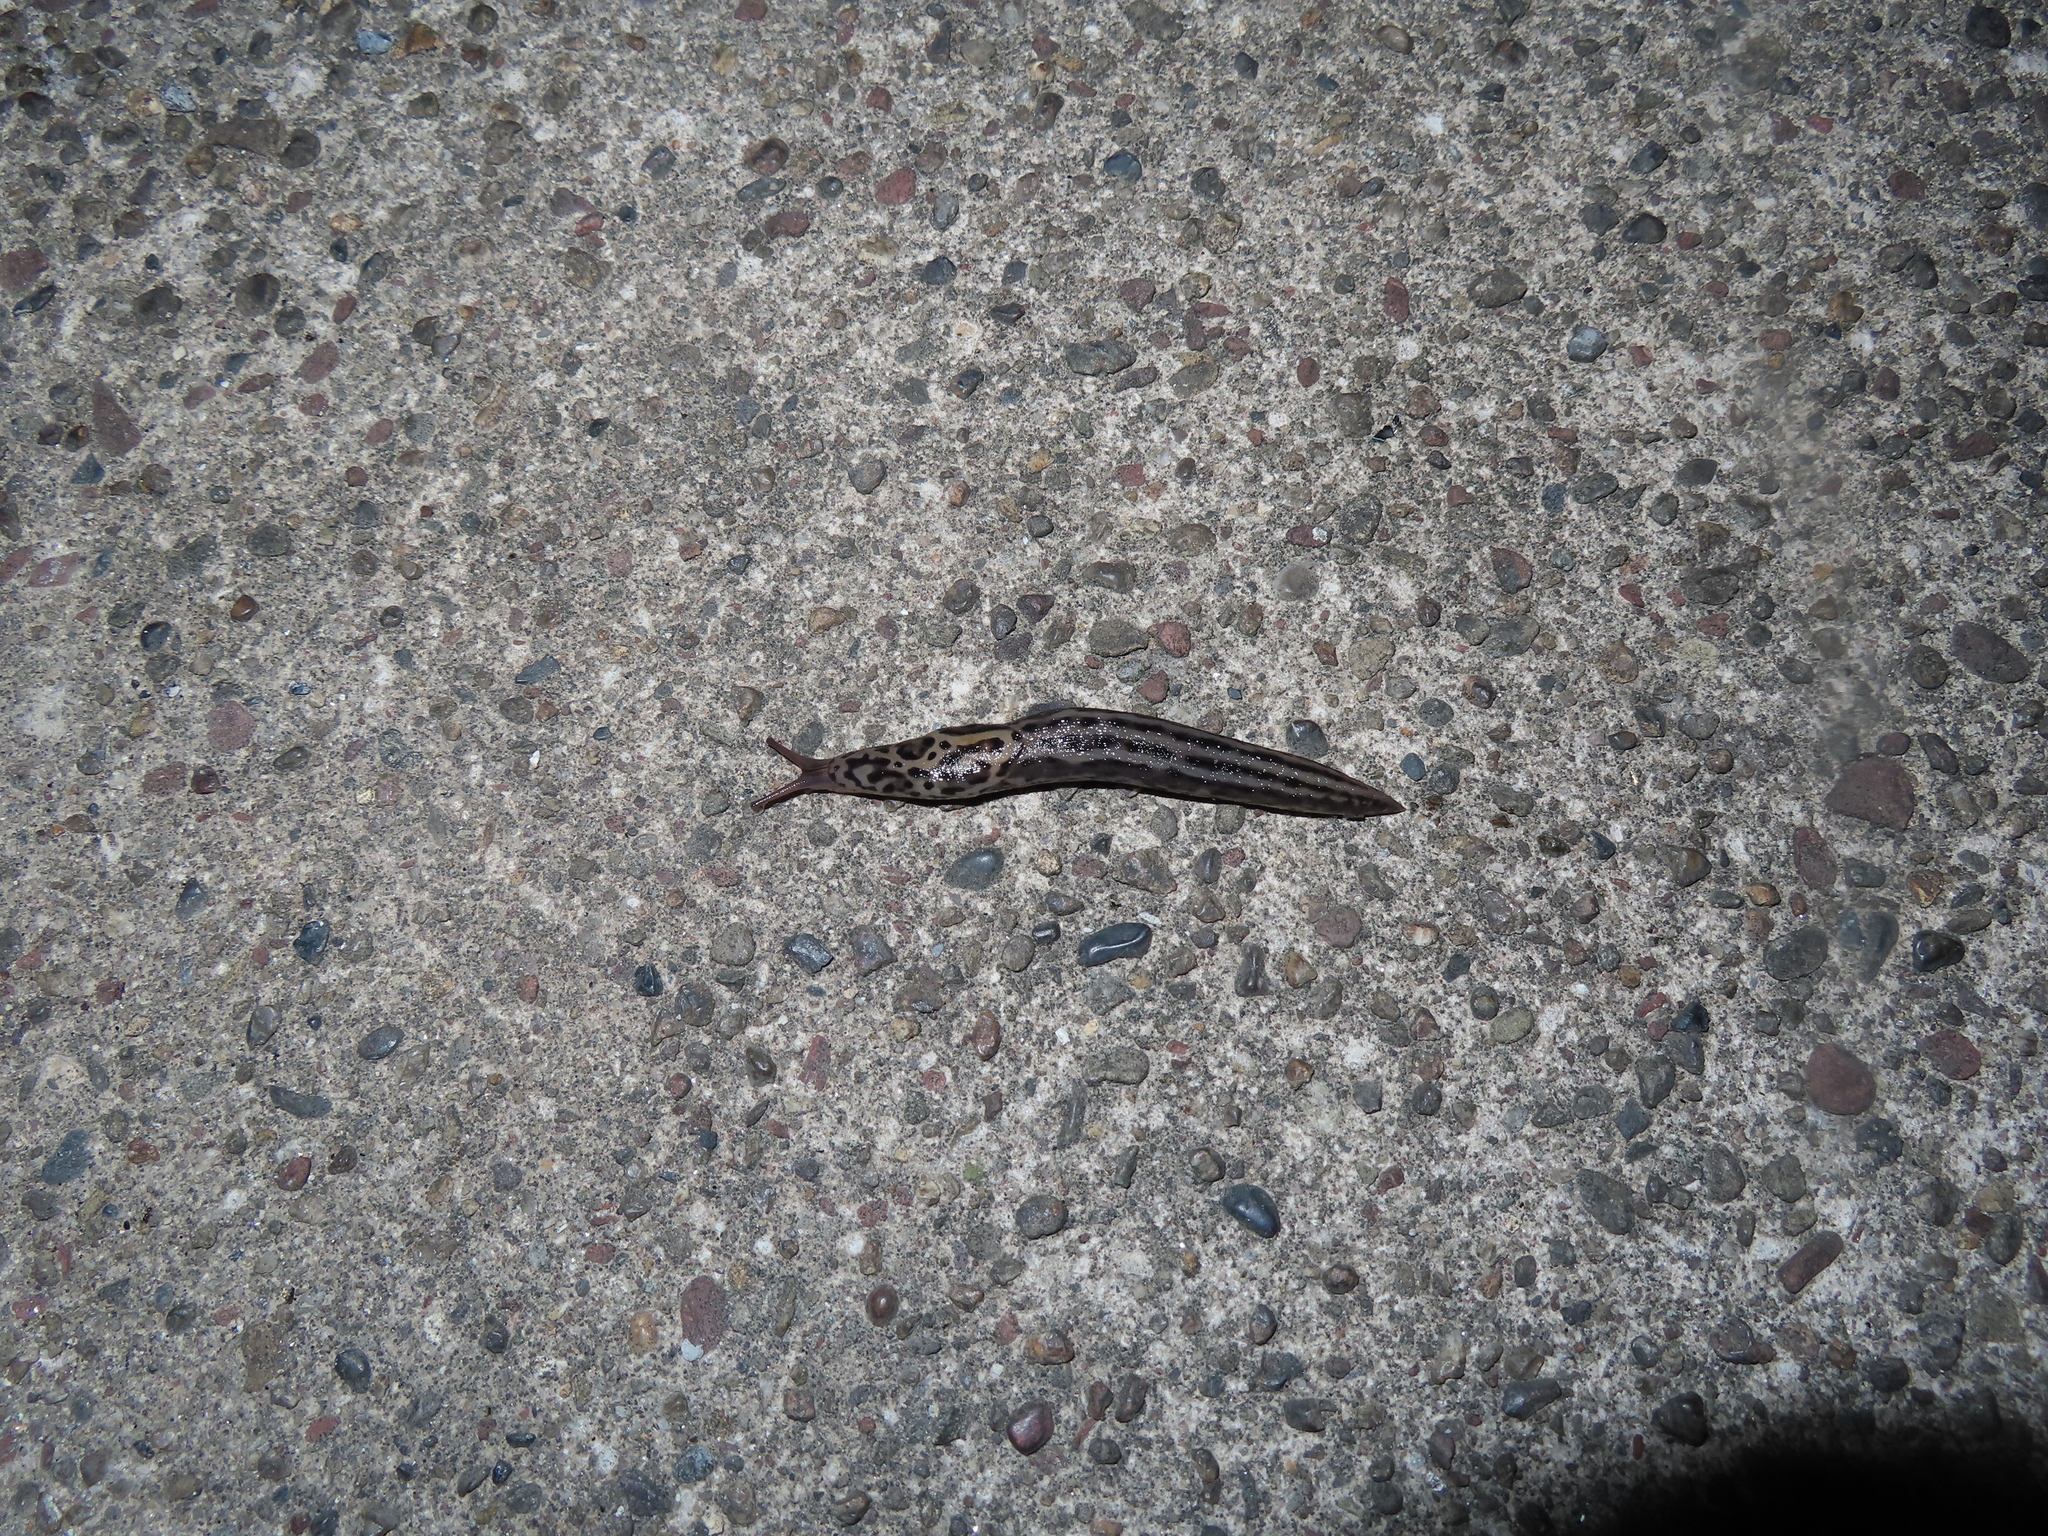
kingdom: Animalia
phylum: Mollusca
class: Gastropoda
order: Stylommatophora
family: Limacidae
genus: Limax
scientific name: Limax maximus
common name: Great grey slug
